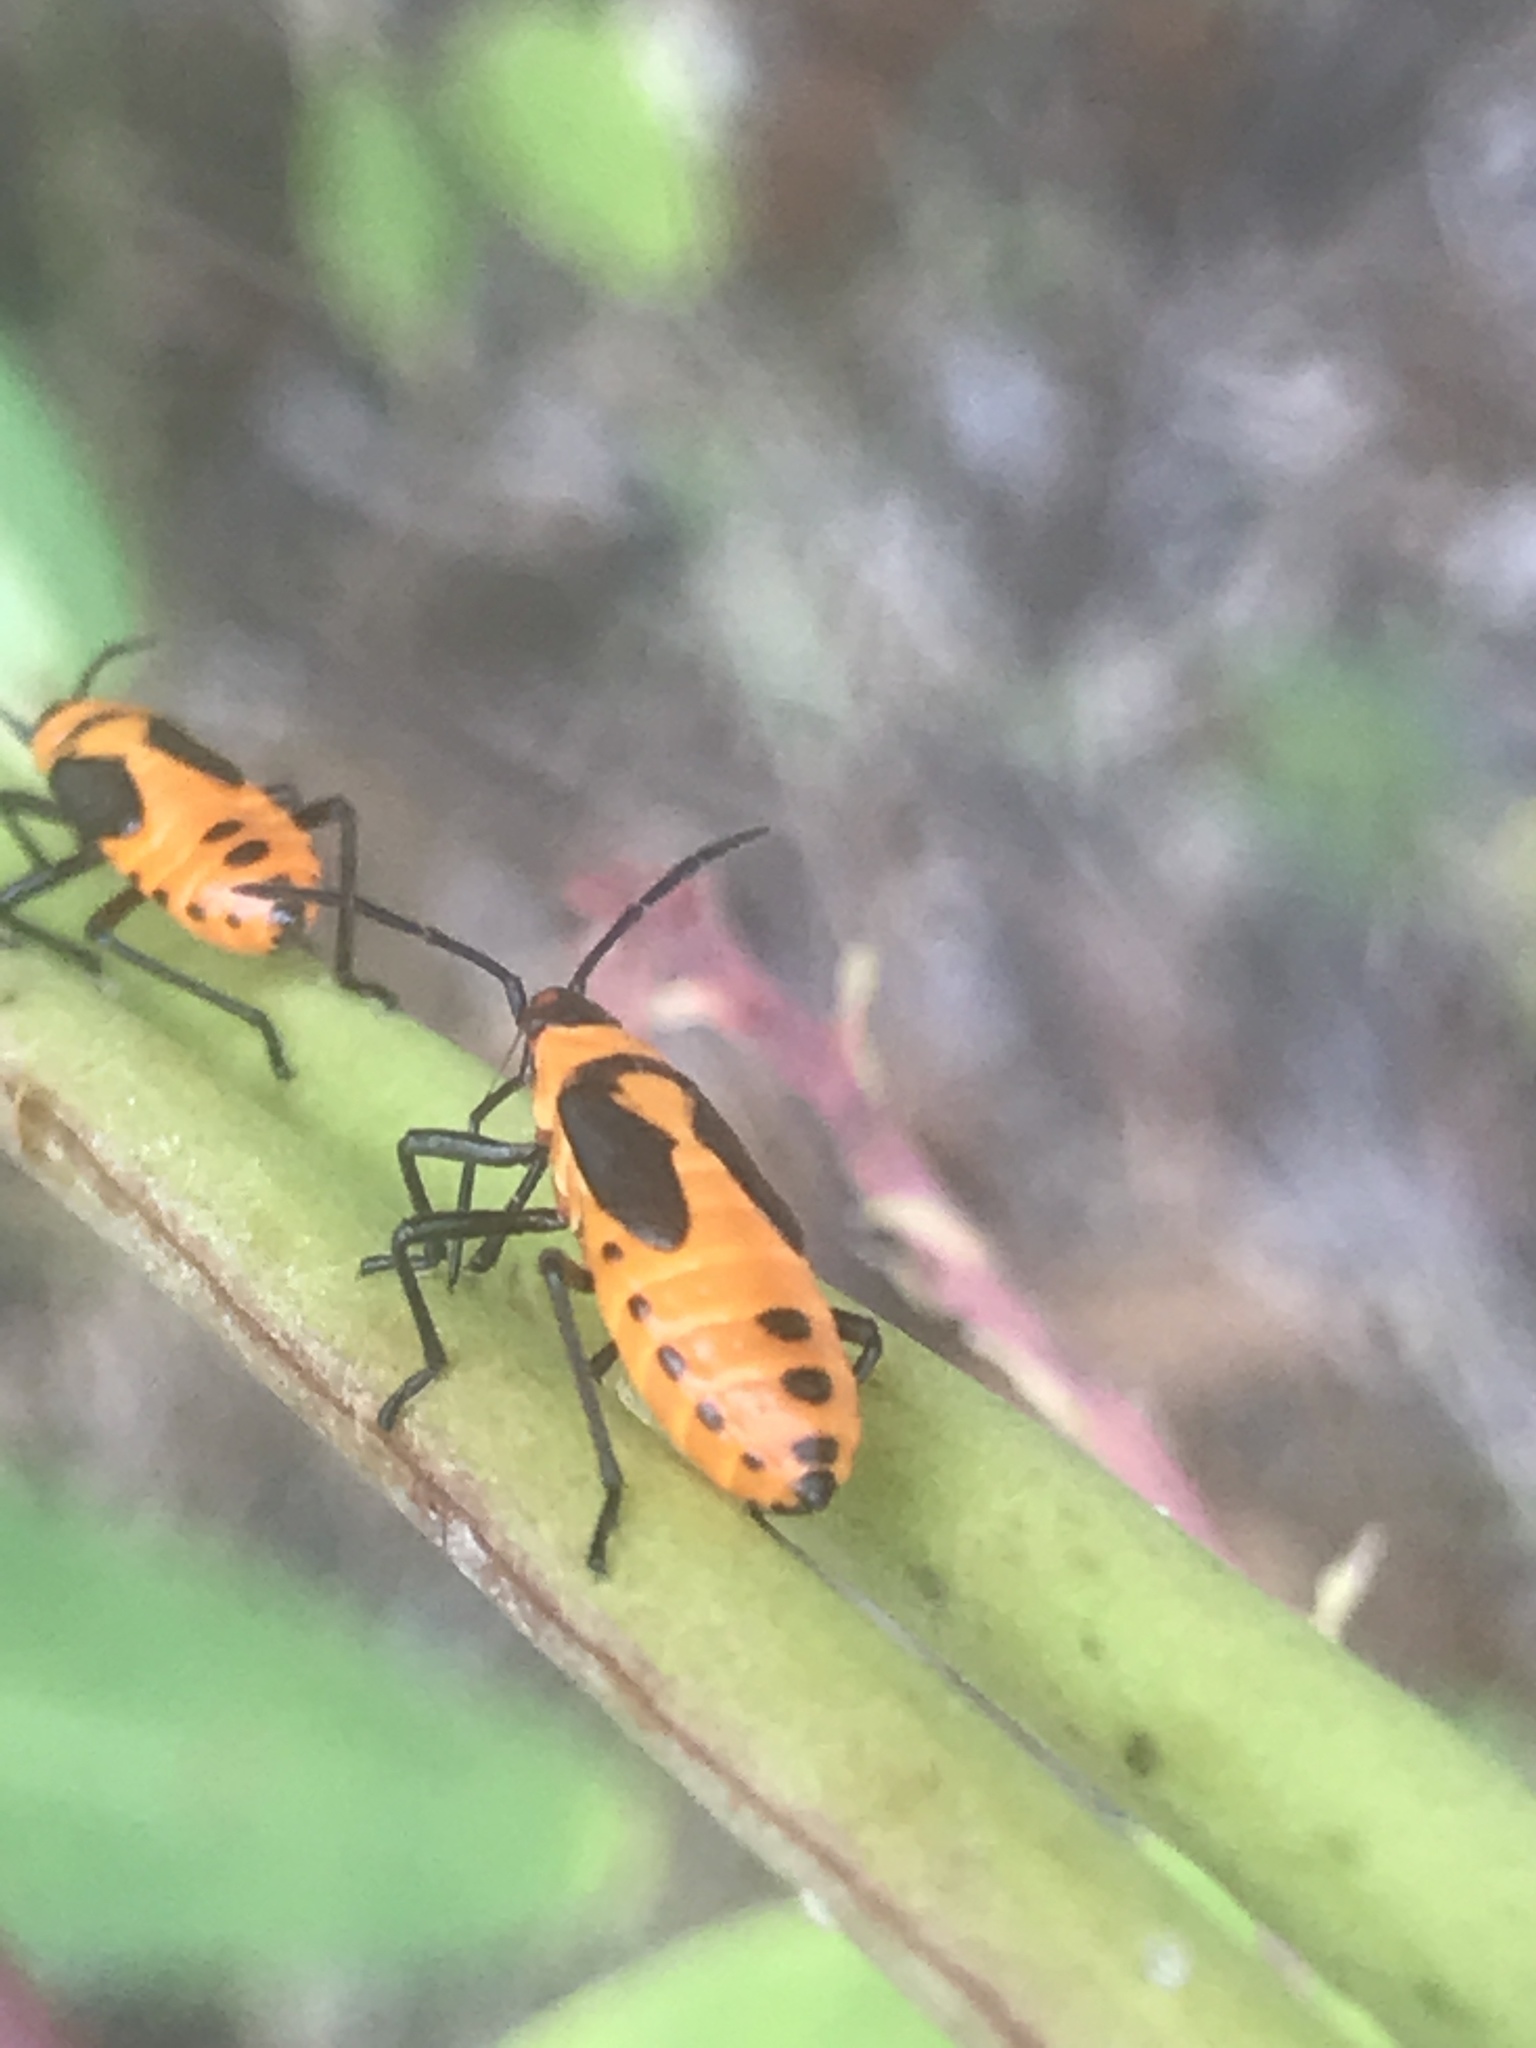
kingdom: Animalia
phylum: Arthropoda
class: Insecta
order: Hemiptera
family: Lygaeidae
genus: Oncopeltus
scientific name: Oncopeltus fasciatus
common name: Large milkweed bug
